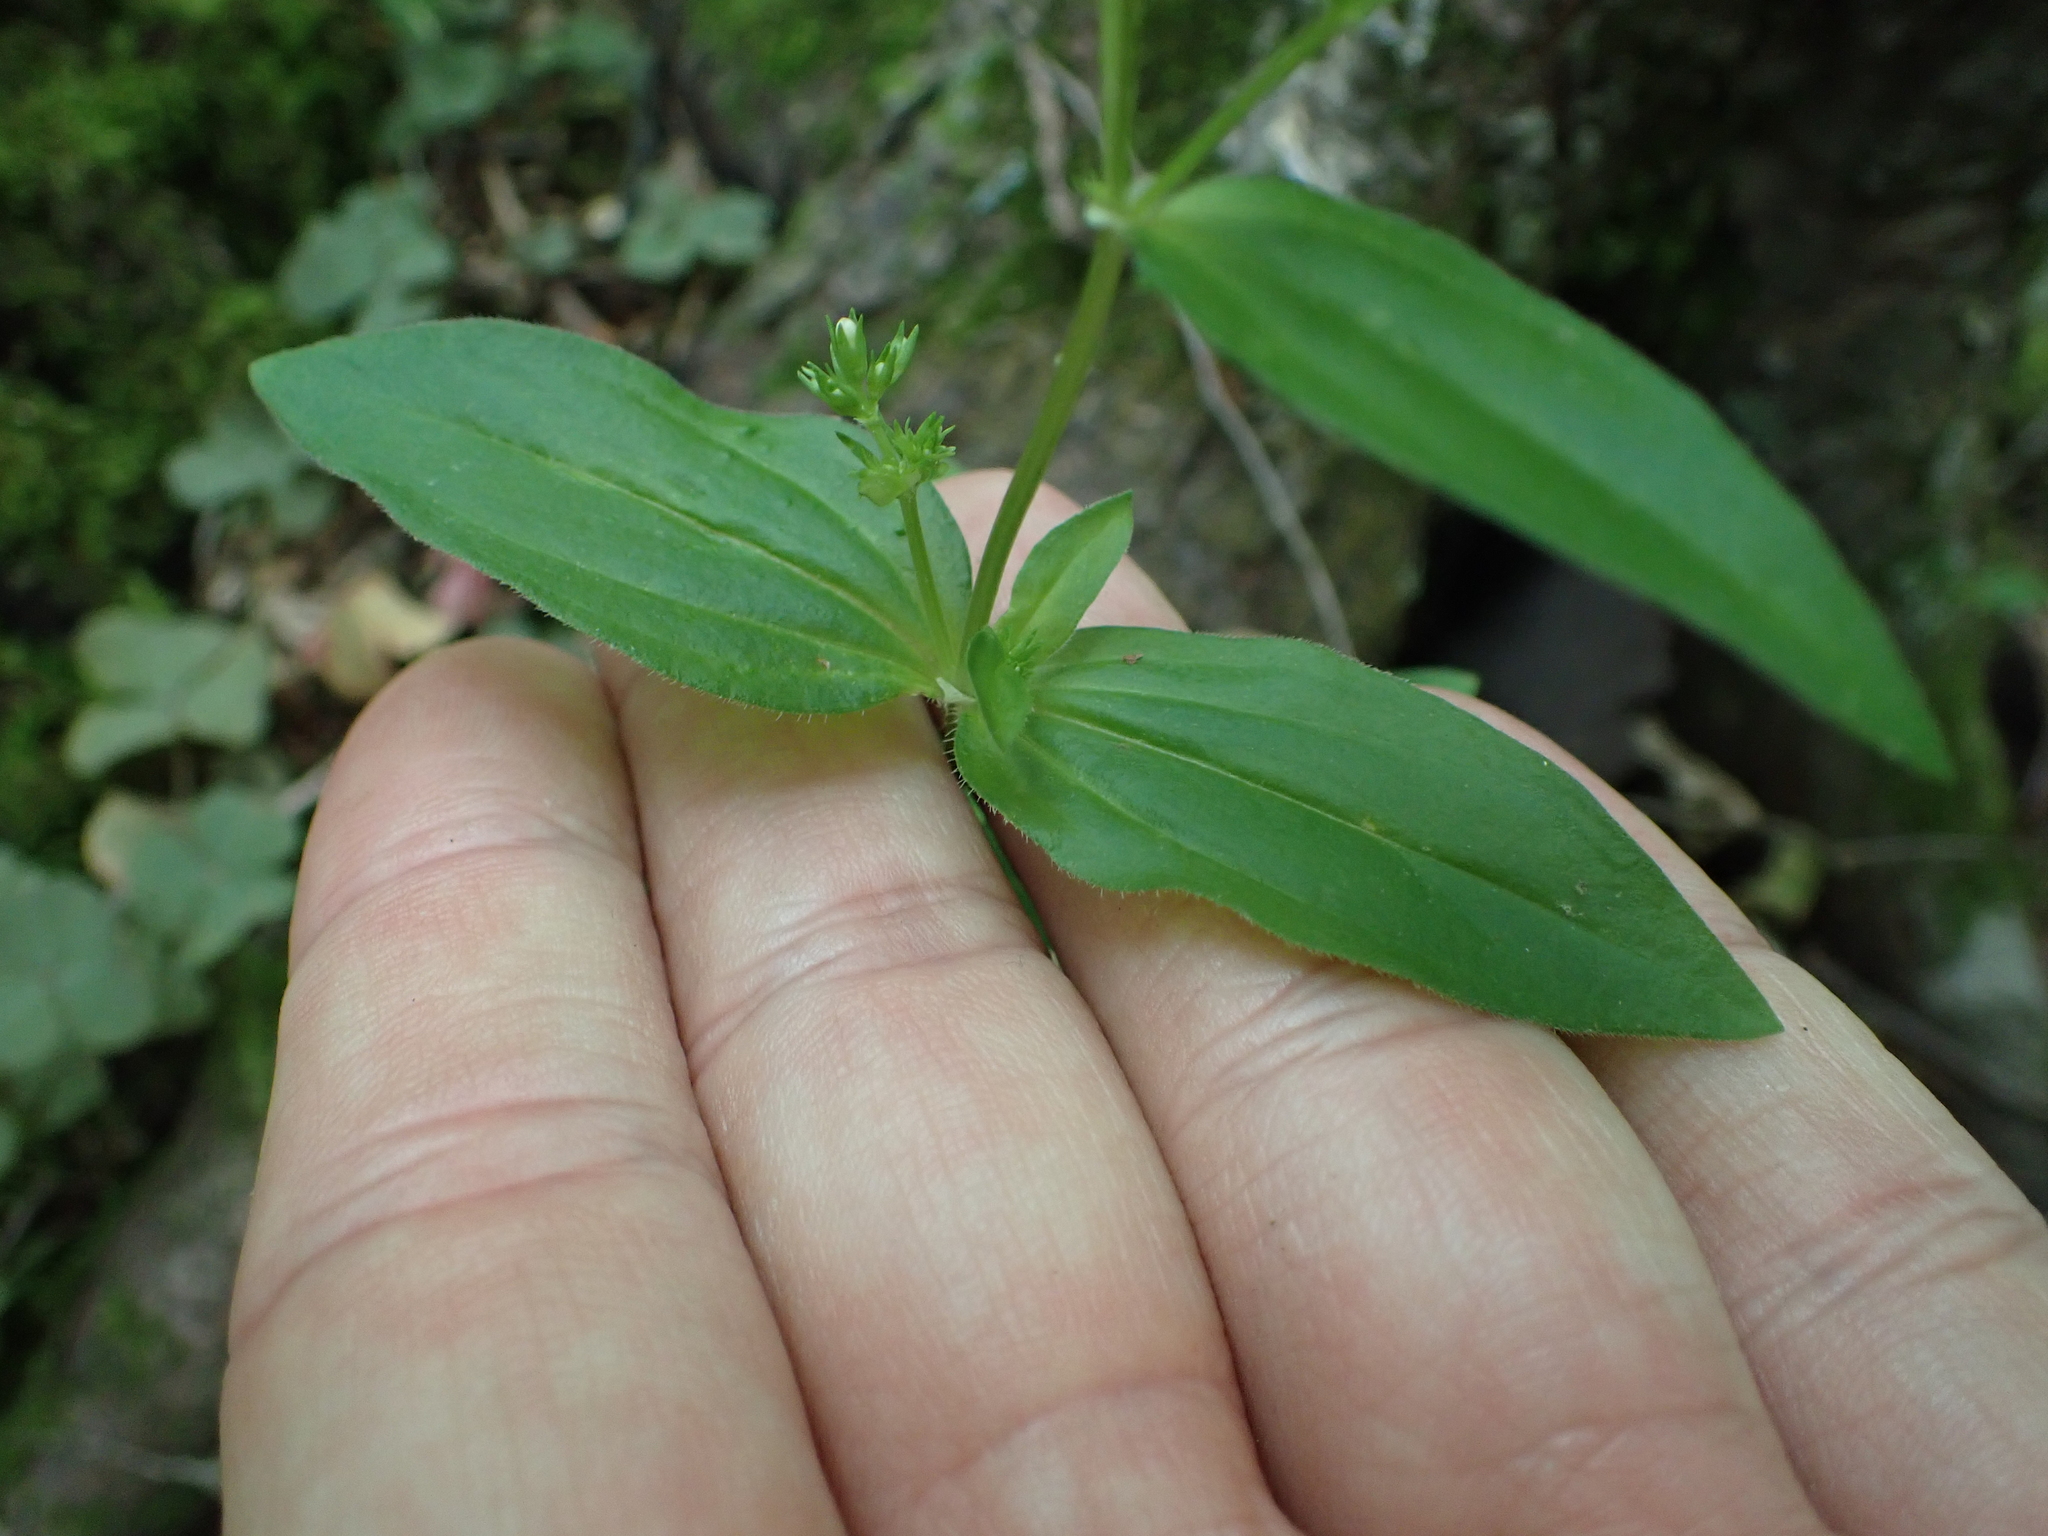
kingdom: Plantae
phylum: Tracheophyta
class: Magnoliopsida
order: Gentianales
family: Rubiaceae
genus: Houstonia
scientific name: Houstonia purpurea
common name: Summer bluet
